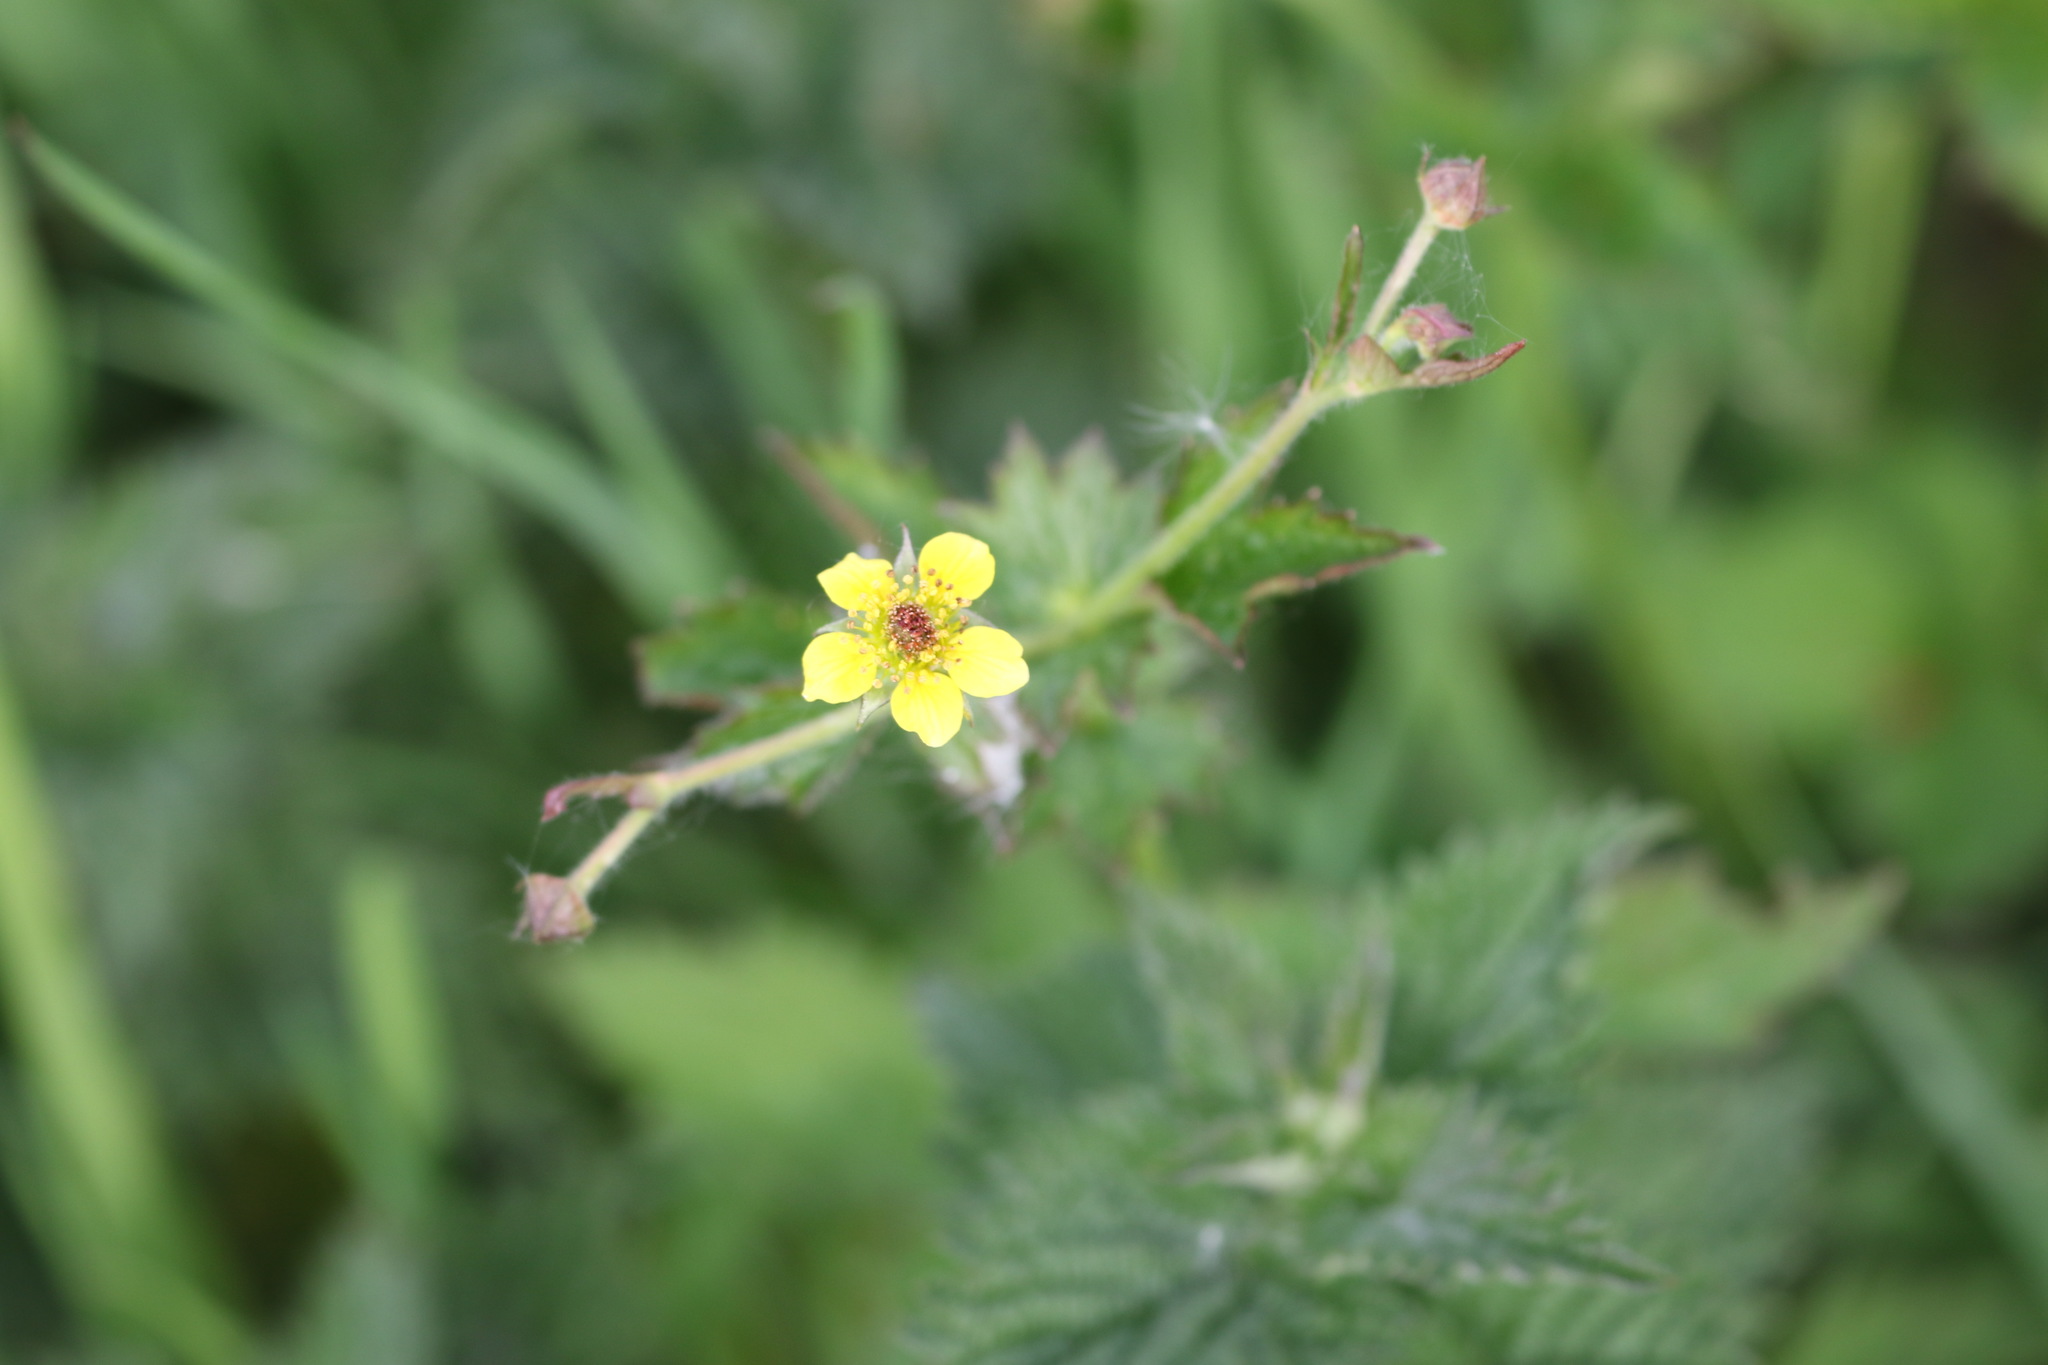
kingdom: Plantae
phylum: Tracheophyta
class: Magnoliopsida
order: Rosales
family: Rosaceae
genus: Geum
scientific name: Geum urbanum
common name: Wood avens
